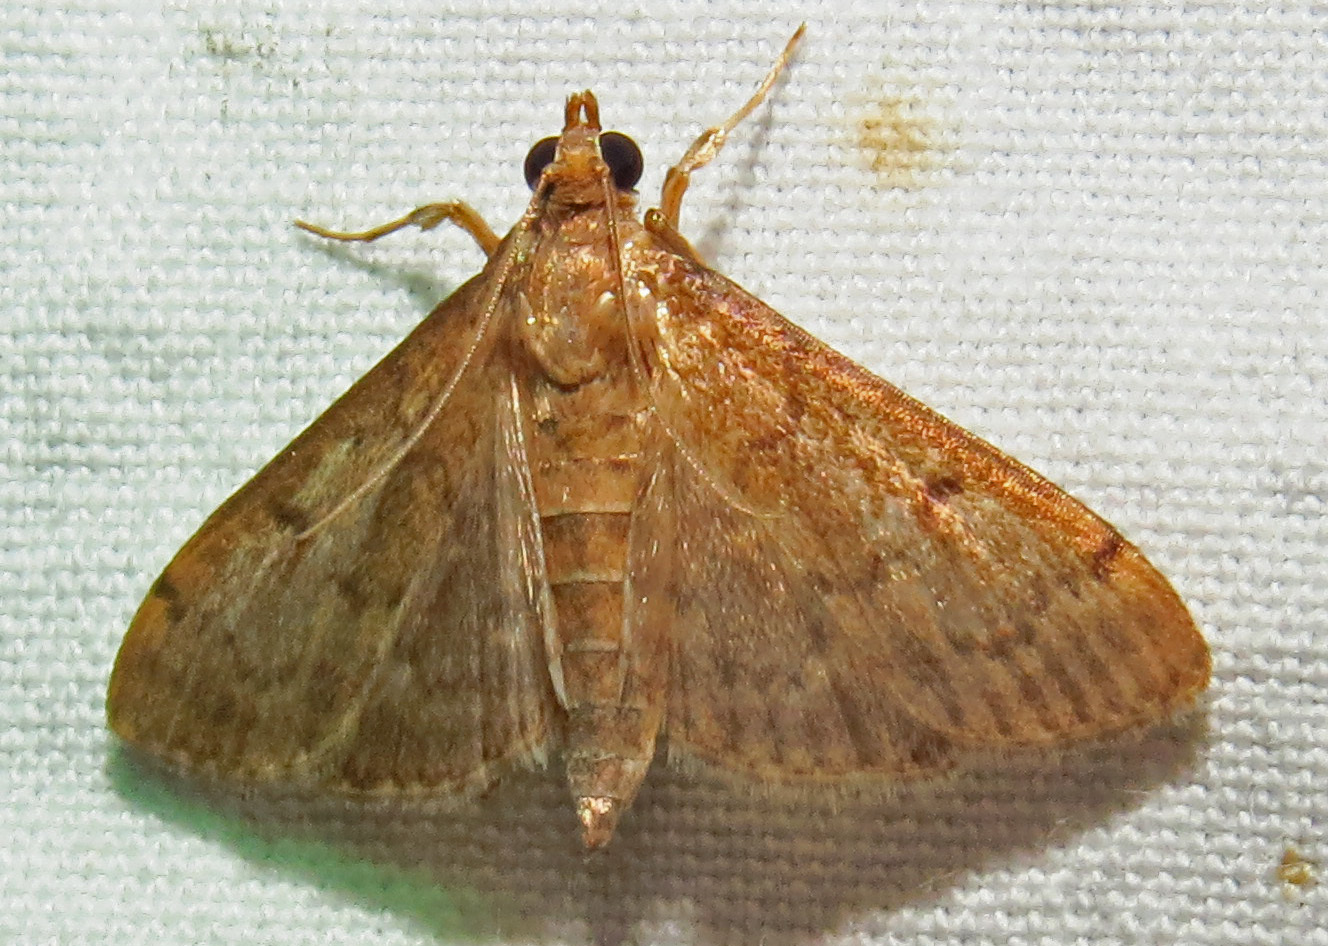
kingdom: Animalia
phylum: Arthropoda
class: Insecta
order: Lepidoptera
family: Crambidae
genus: Herpetogramma
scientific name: Herpetogramma phaeopteralis
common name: Dusky herpetogramma moth
